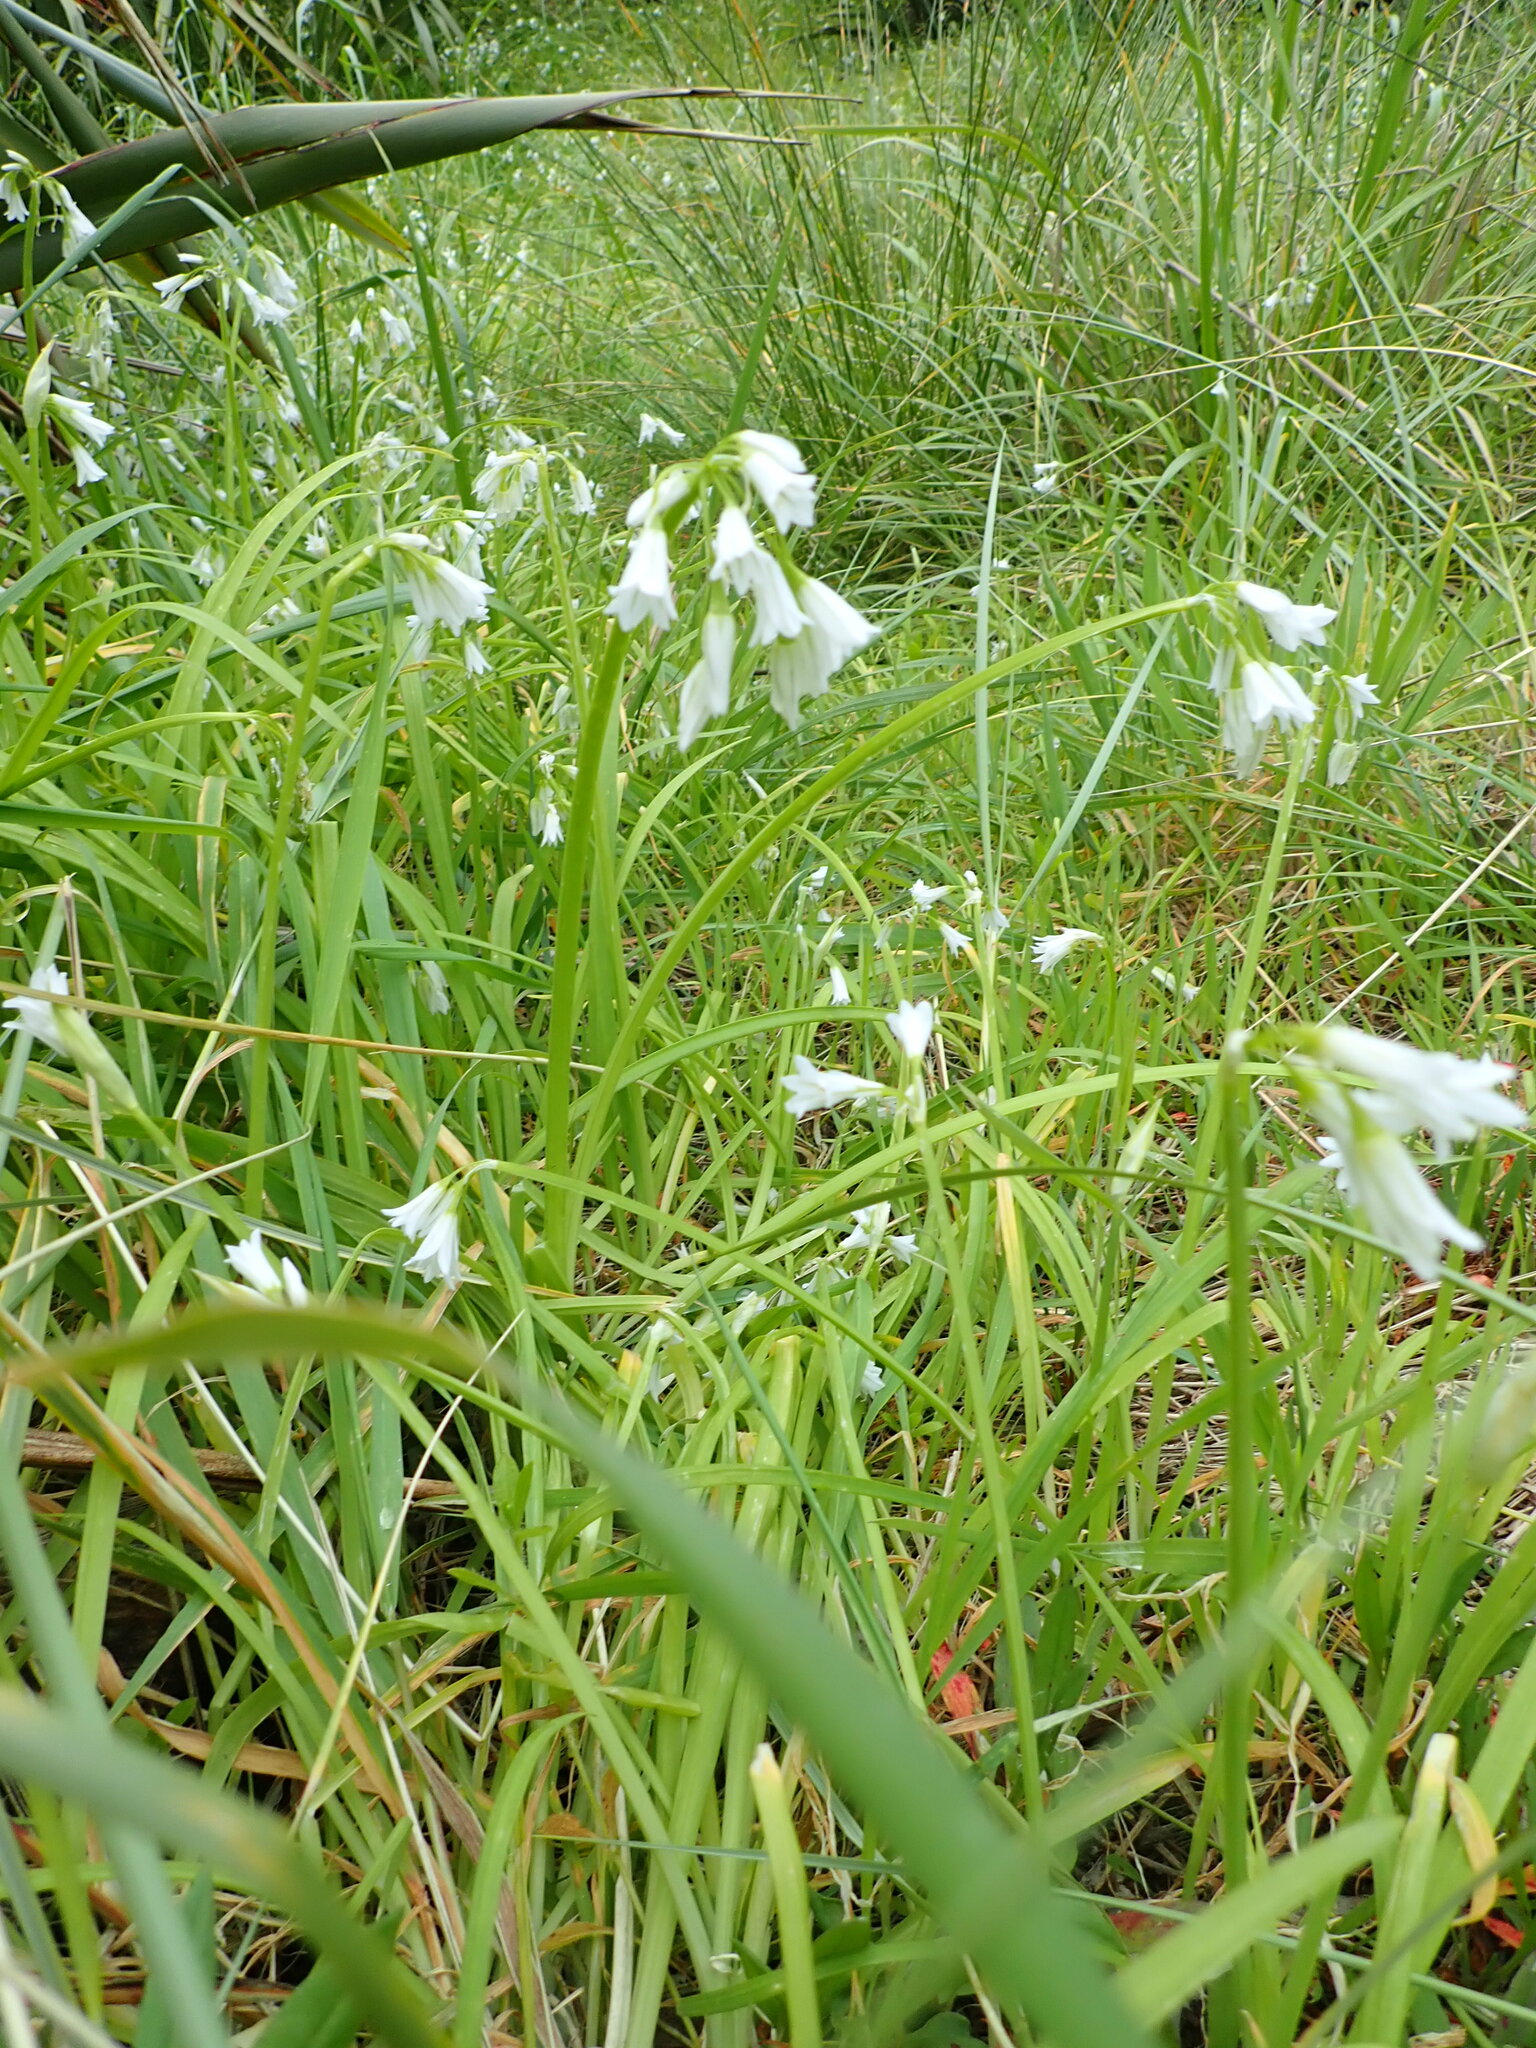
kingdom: Plantae
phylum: Tracheophyta
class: Liliopsida
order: Asparagales
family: Amaryllidaceae
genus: Allium
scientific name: Allium triquetrum
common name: Three-cornered garlic
